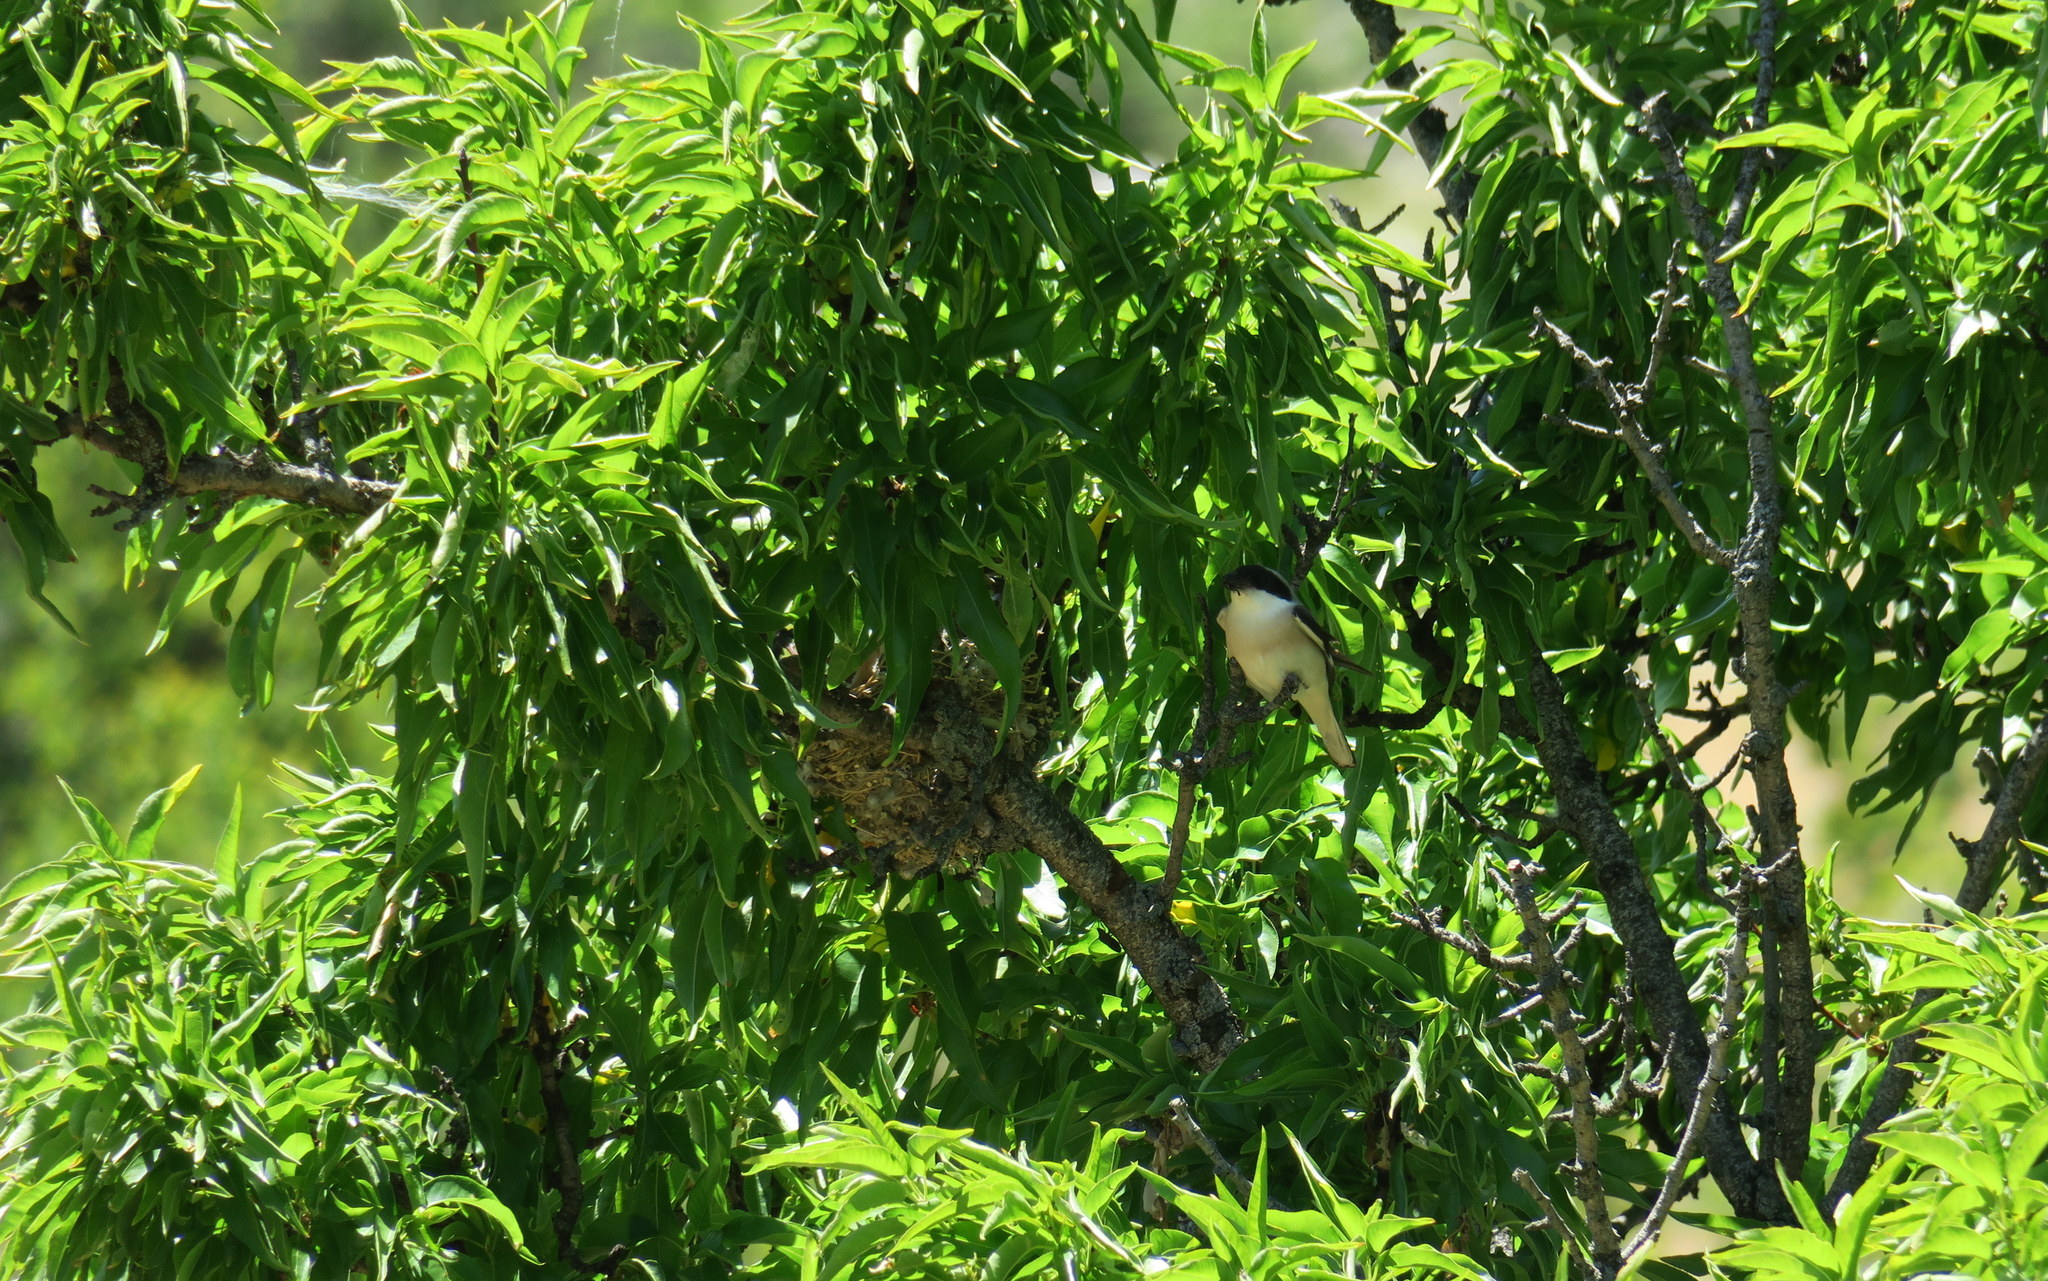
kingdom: Animalia
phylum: Chordata
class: Aves
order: Passeriformes
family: Laniidae
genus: Lanius
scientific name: Lanius minor
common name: Lesser grey shrike
